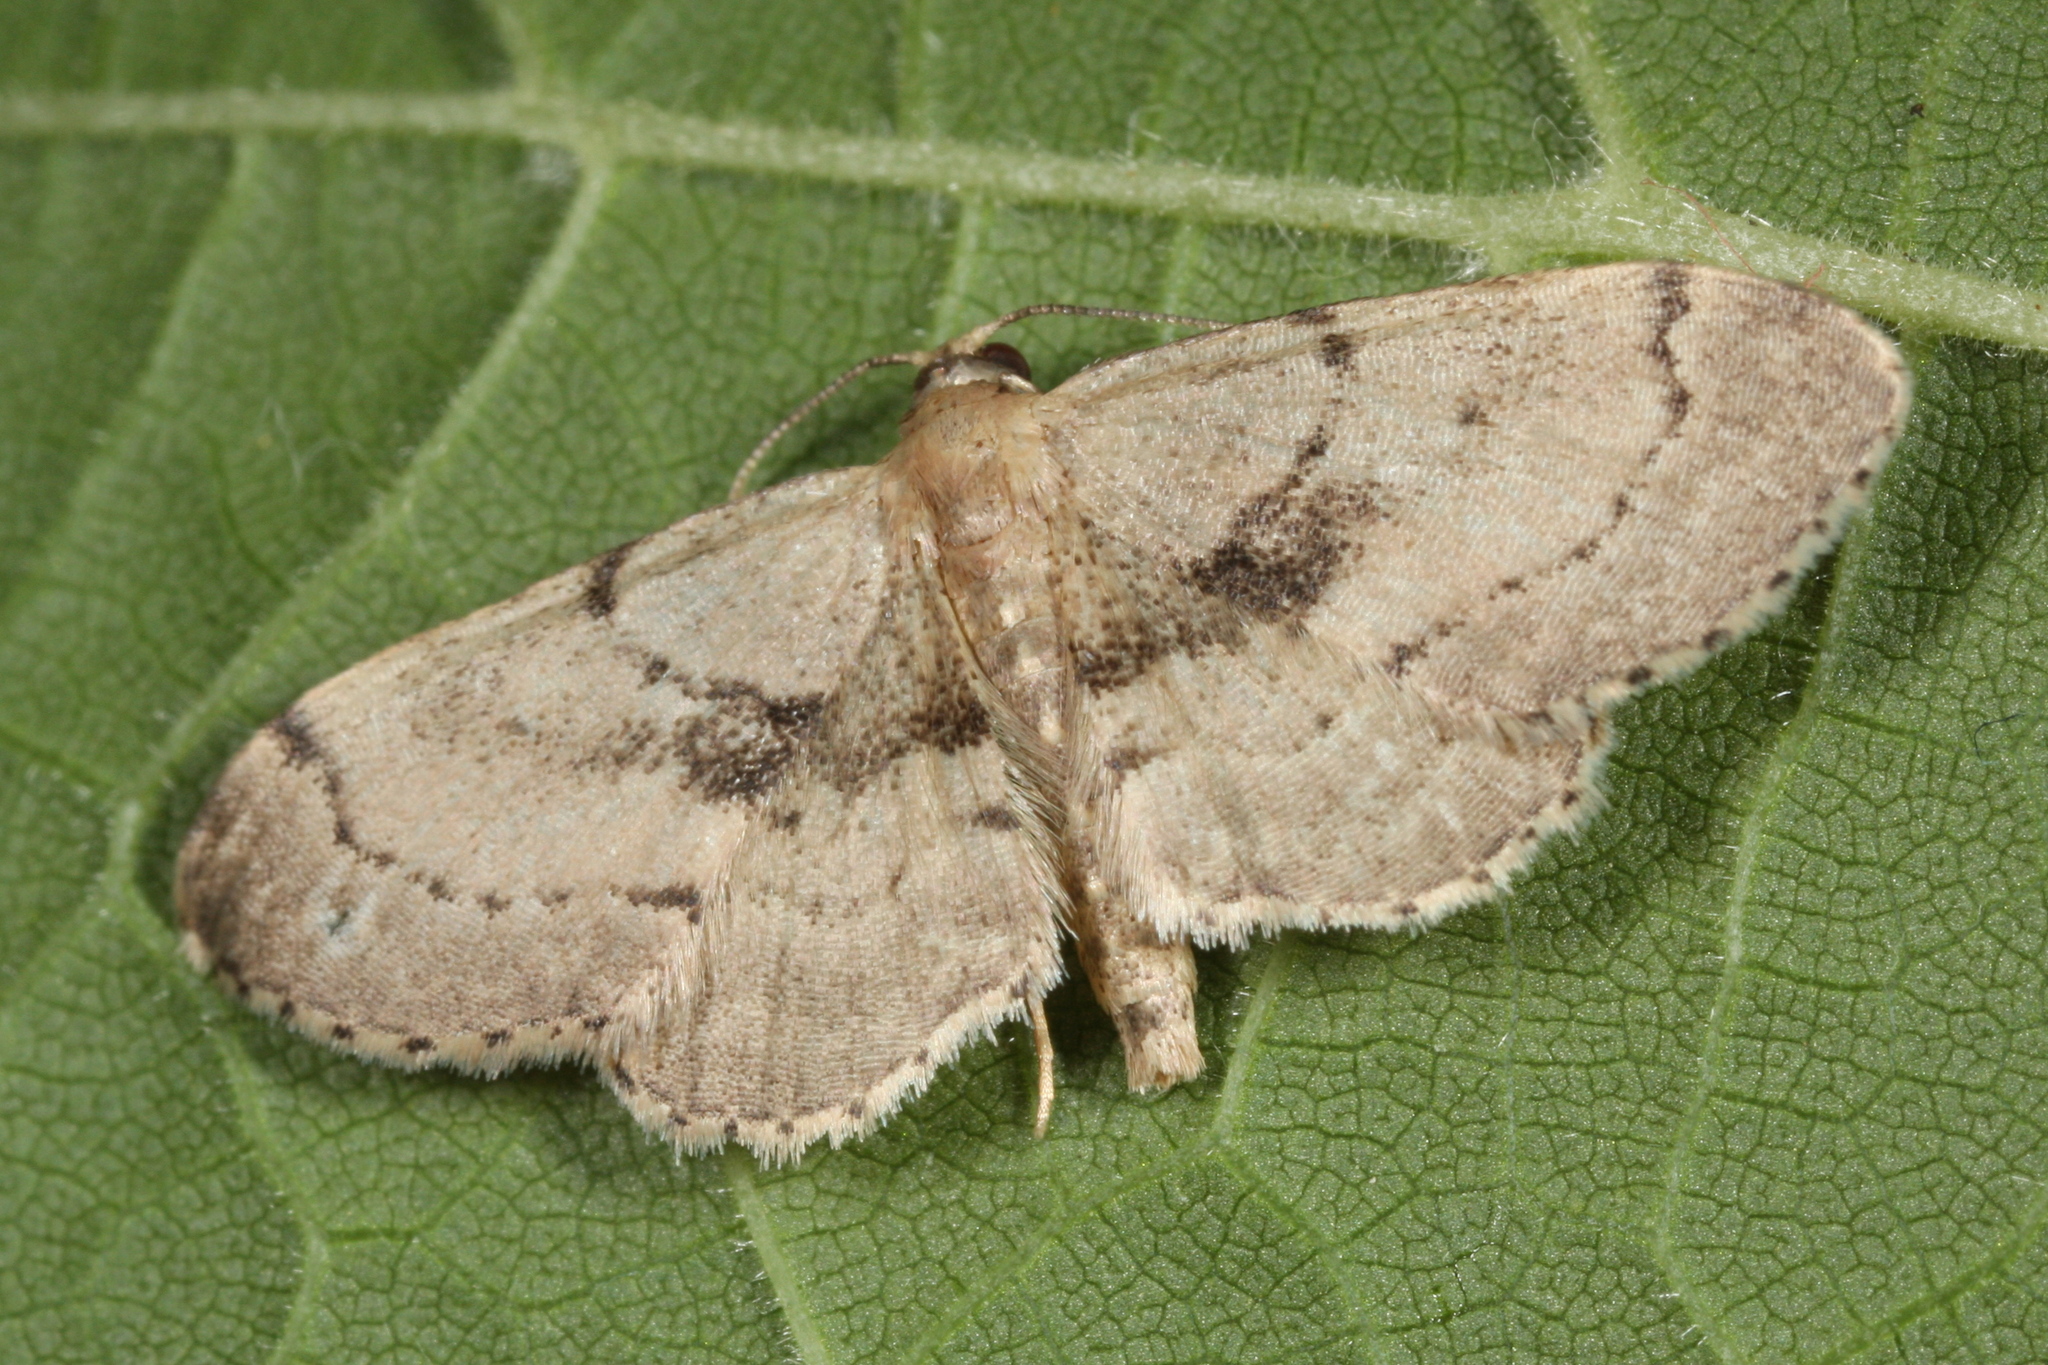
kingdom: Animalia
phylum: Arthropoda
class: Insecta
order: Lepidoptera
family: Geometridae
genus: Idaea
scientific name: Idaea laevigata
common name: Strange wave
